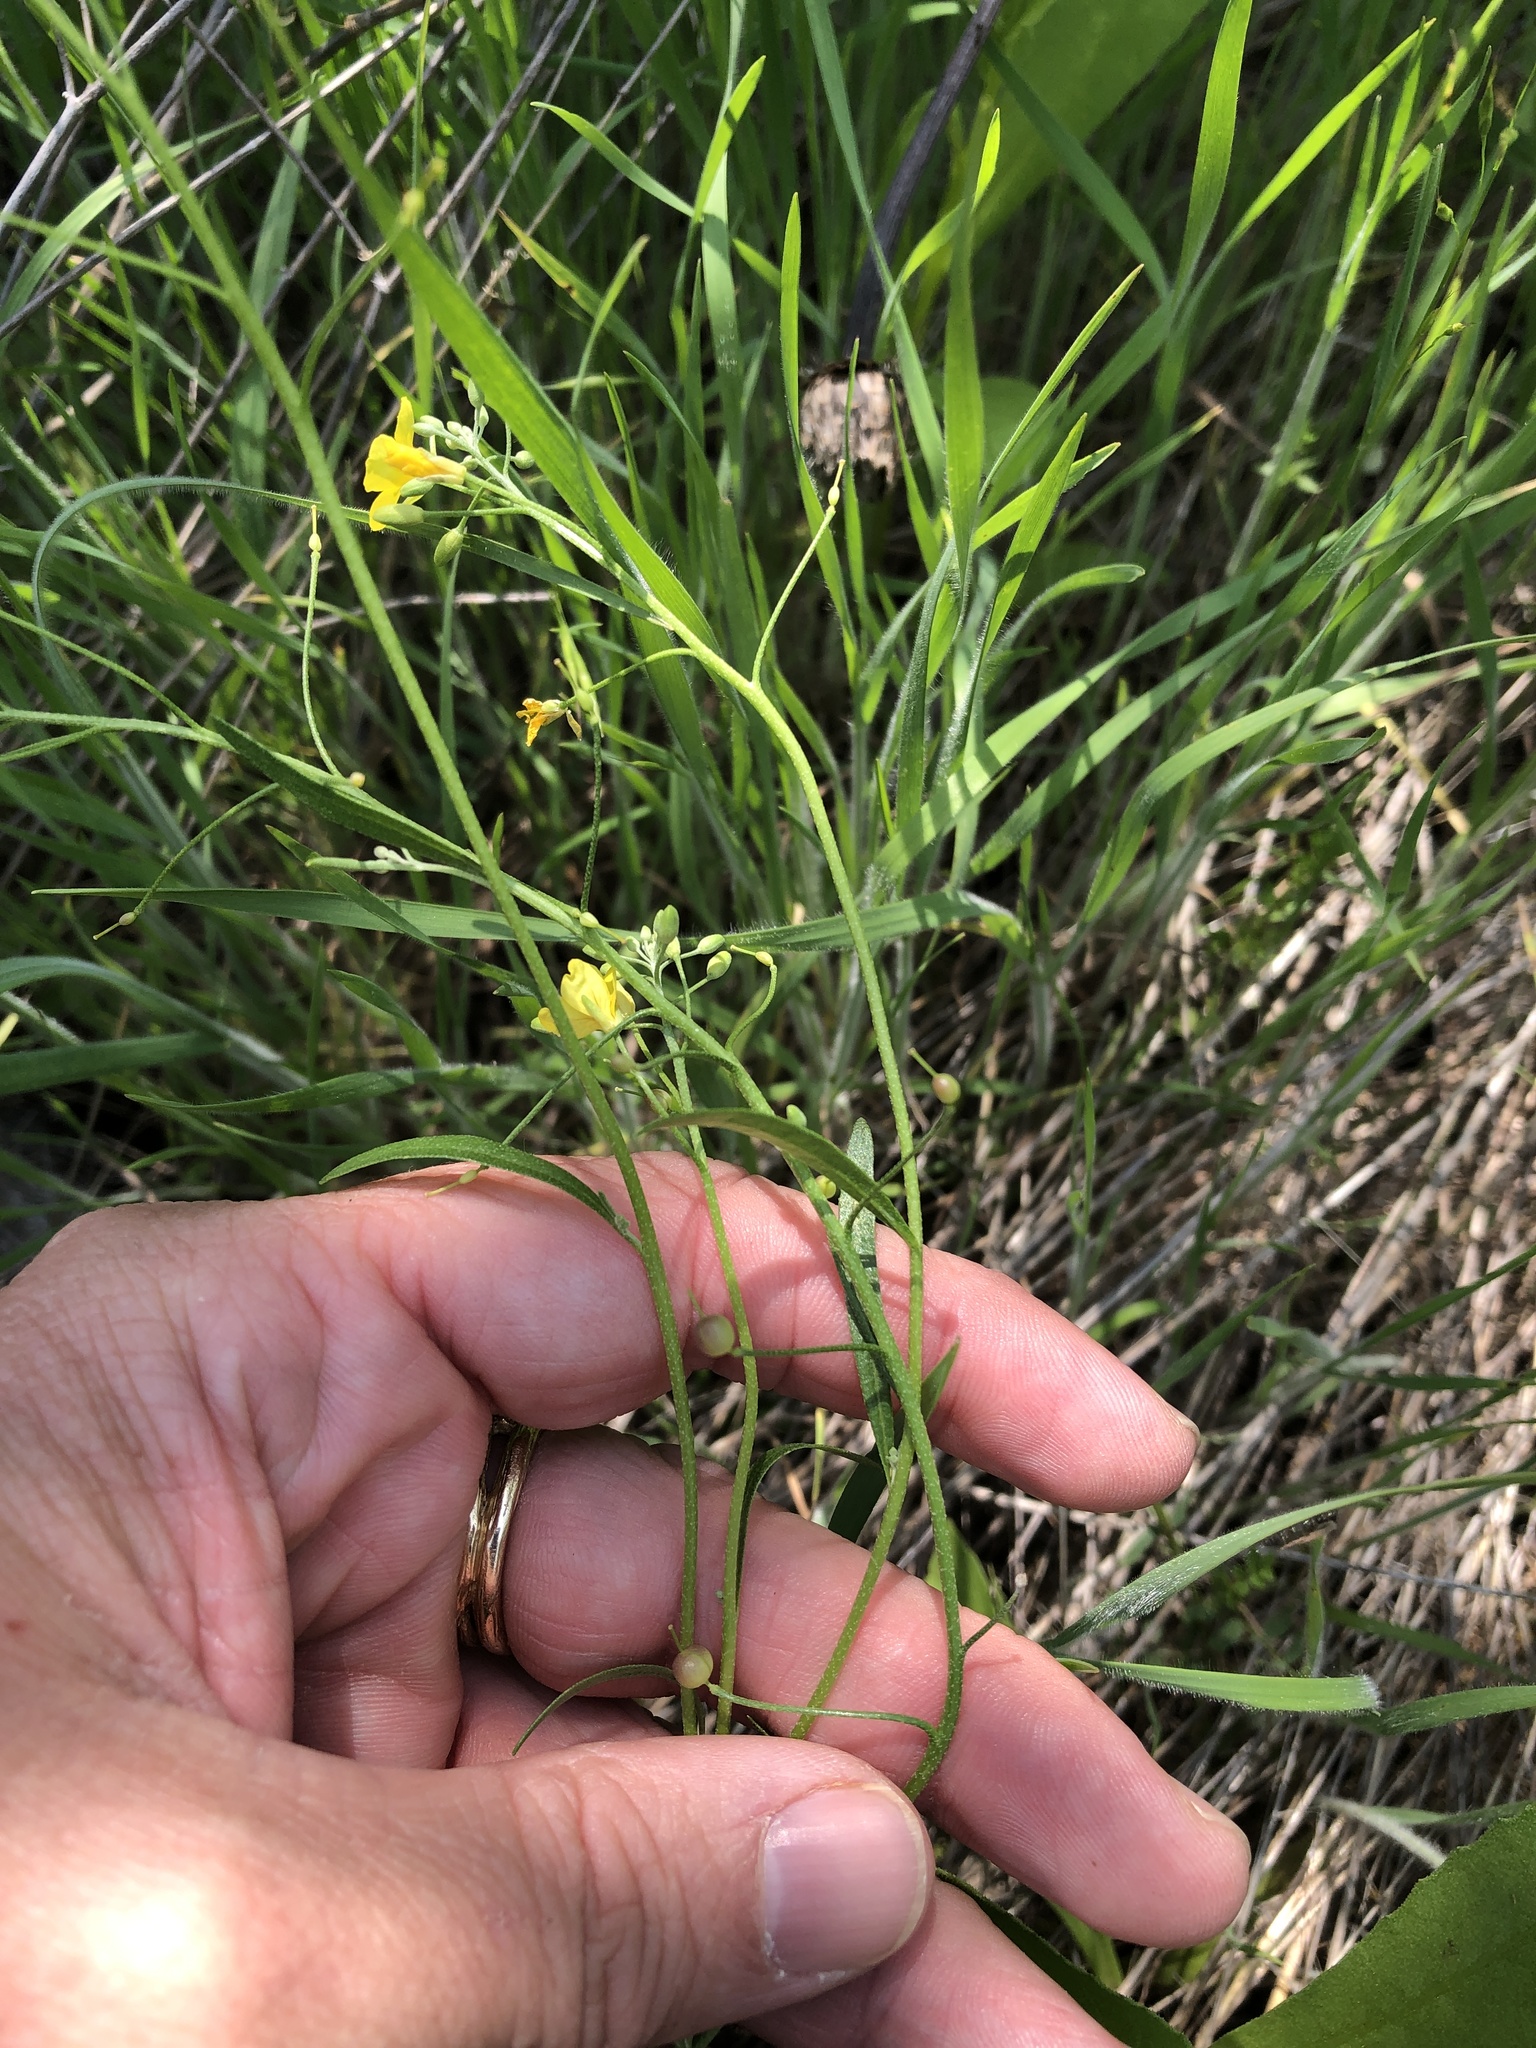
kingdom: Plantae
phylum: Tracheophyta
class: Magnoliopsida
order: Brassicales
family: Brassicaceae
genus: Physaria
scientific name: Physaria gracilis
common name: Spreading bladderpod
